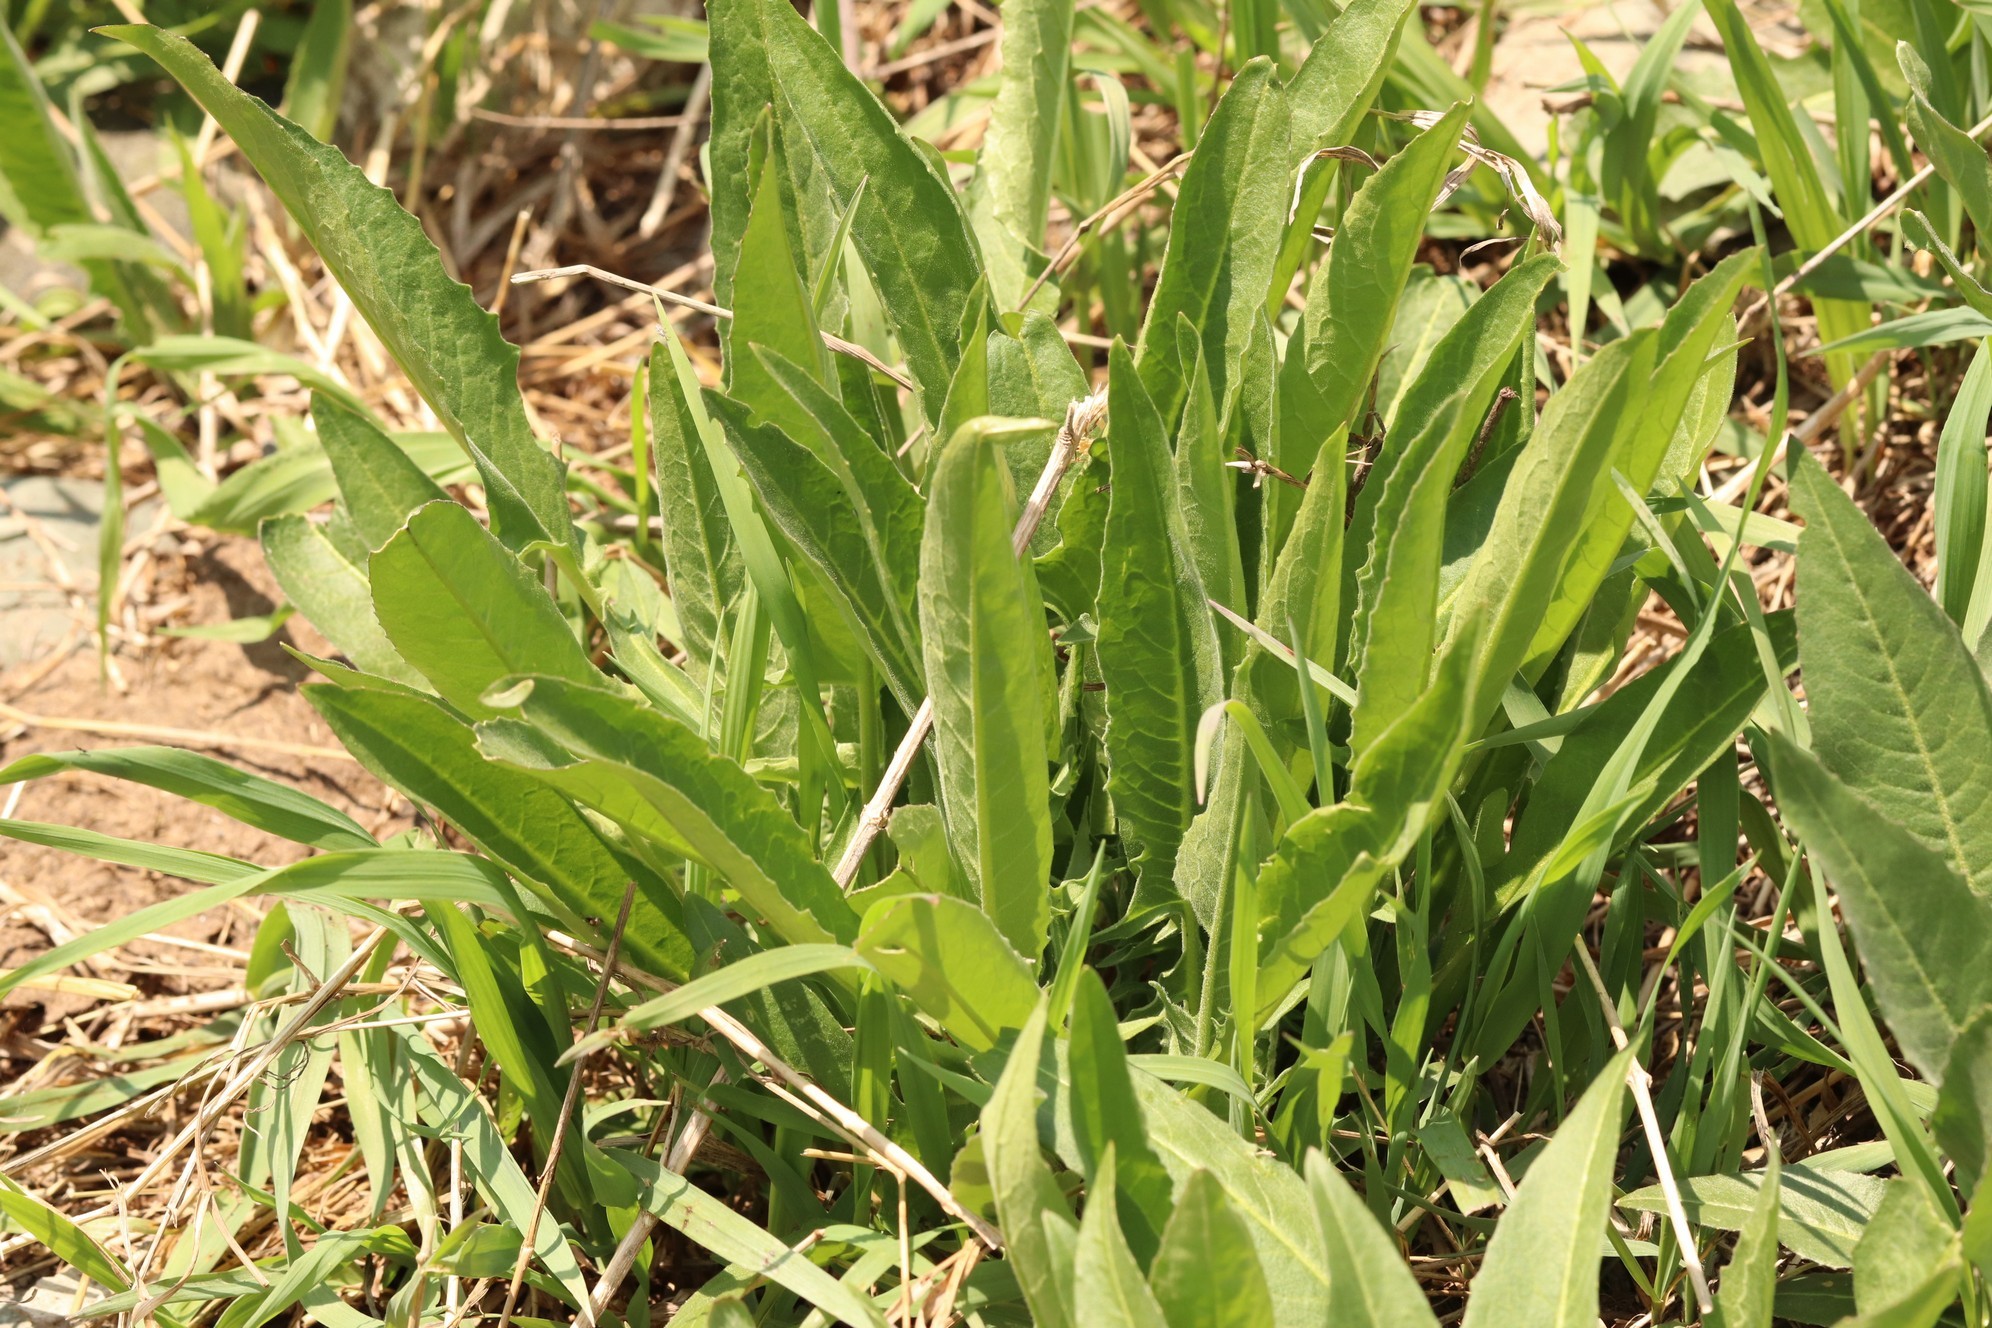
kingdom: Plantae
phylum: Tracheophyta
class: Magnoliopsida
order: Brassicales
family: Brassicaceae
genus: Bunias
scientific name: Bunias orientalis
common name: Warty-cabbage
